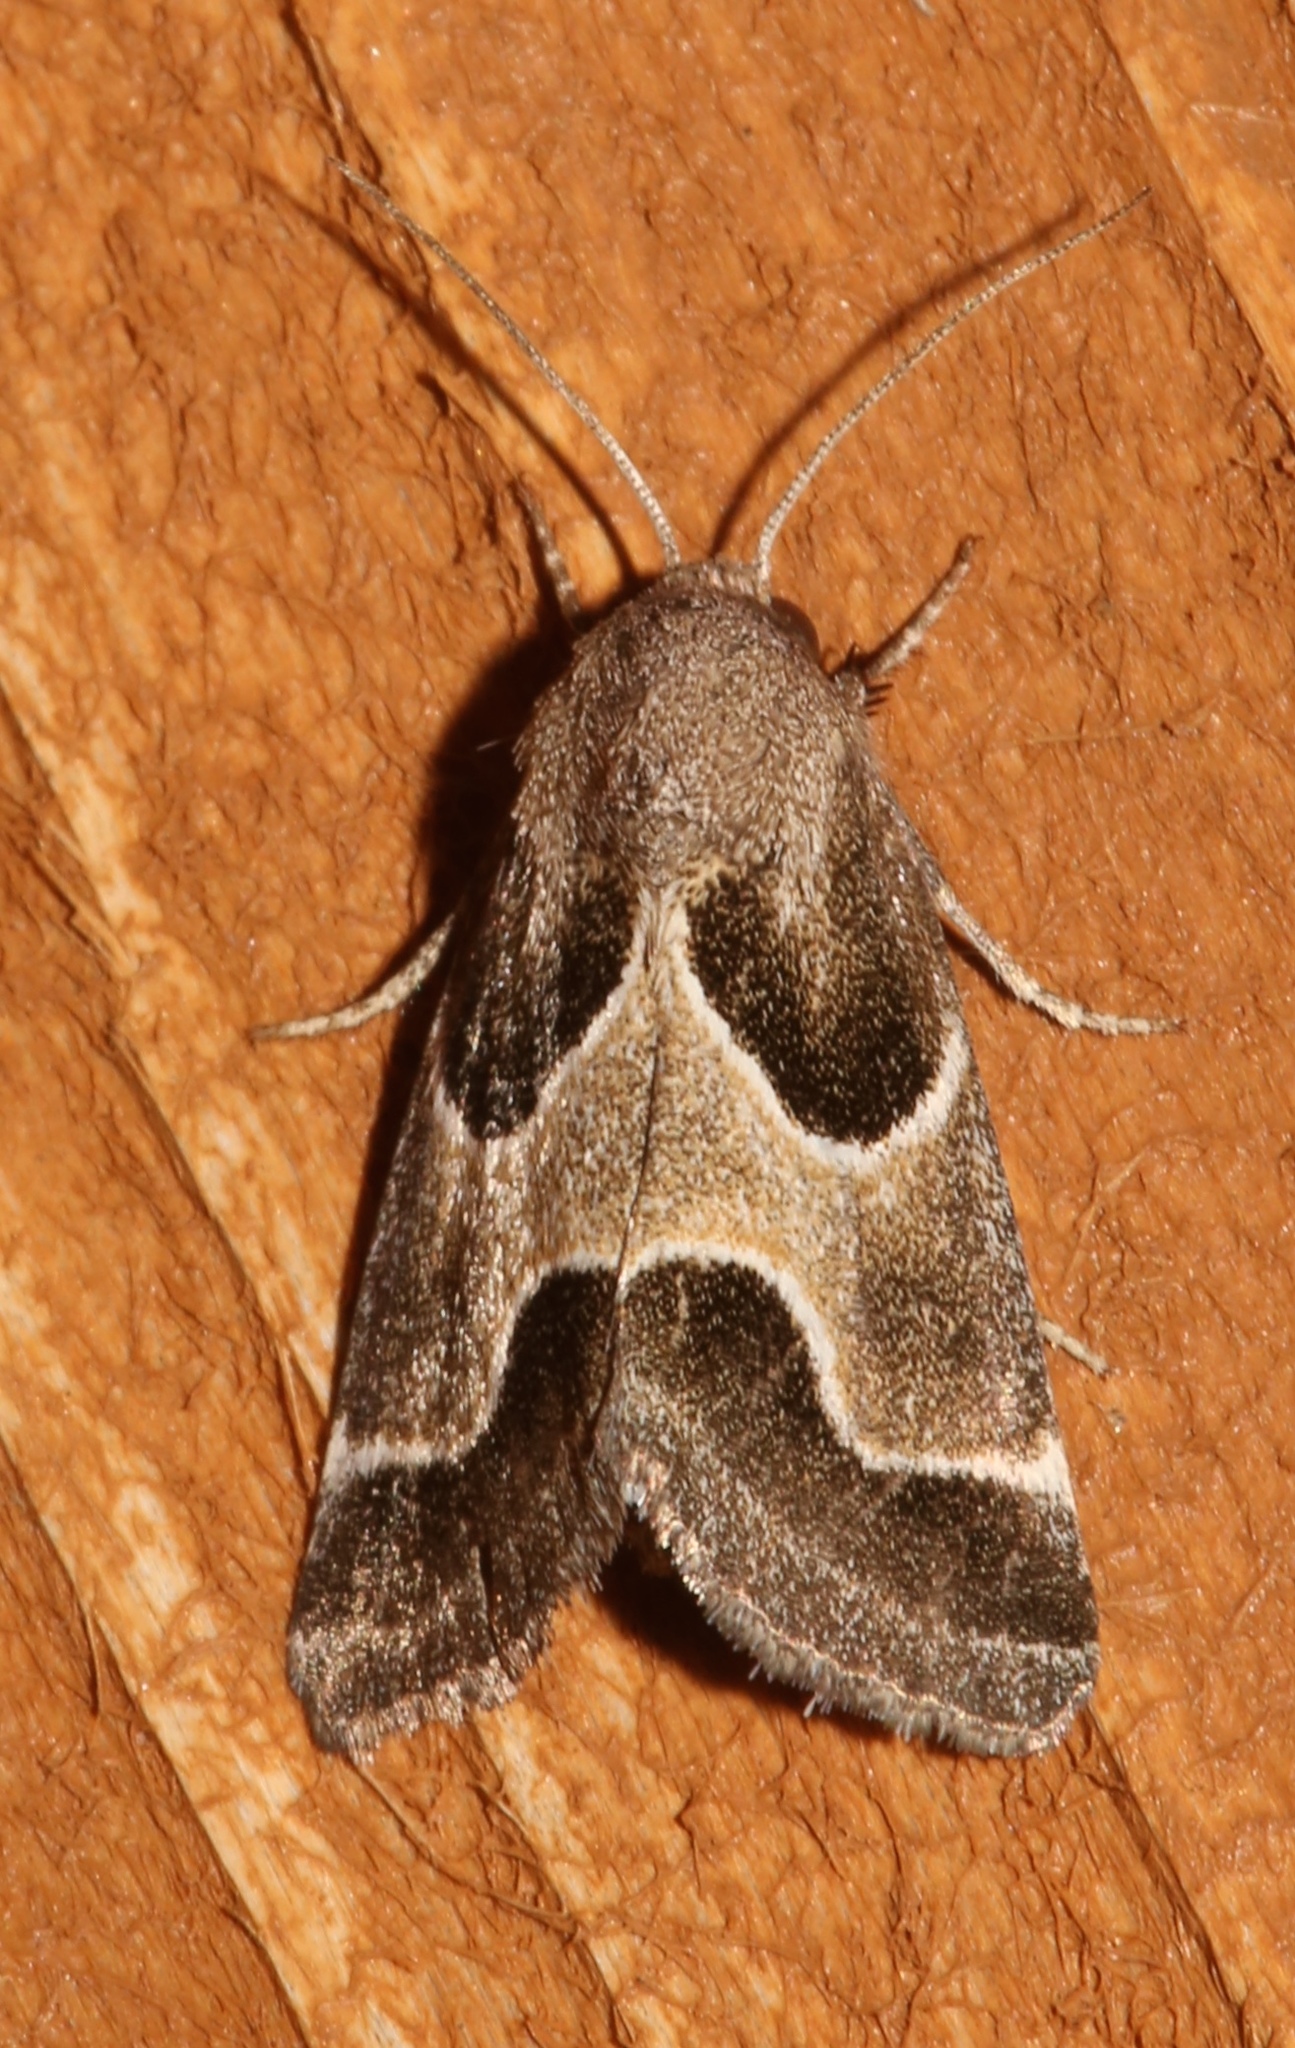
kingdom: Animalia
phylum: Arthropoda
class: Insecta
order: Lepidoptera
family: Noctuidae
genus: Schinia
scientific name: Schinia rivulosa
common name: Scarce meal-moth
